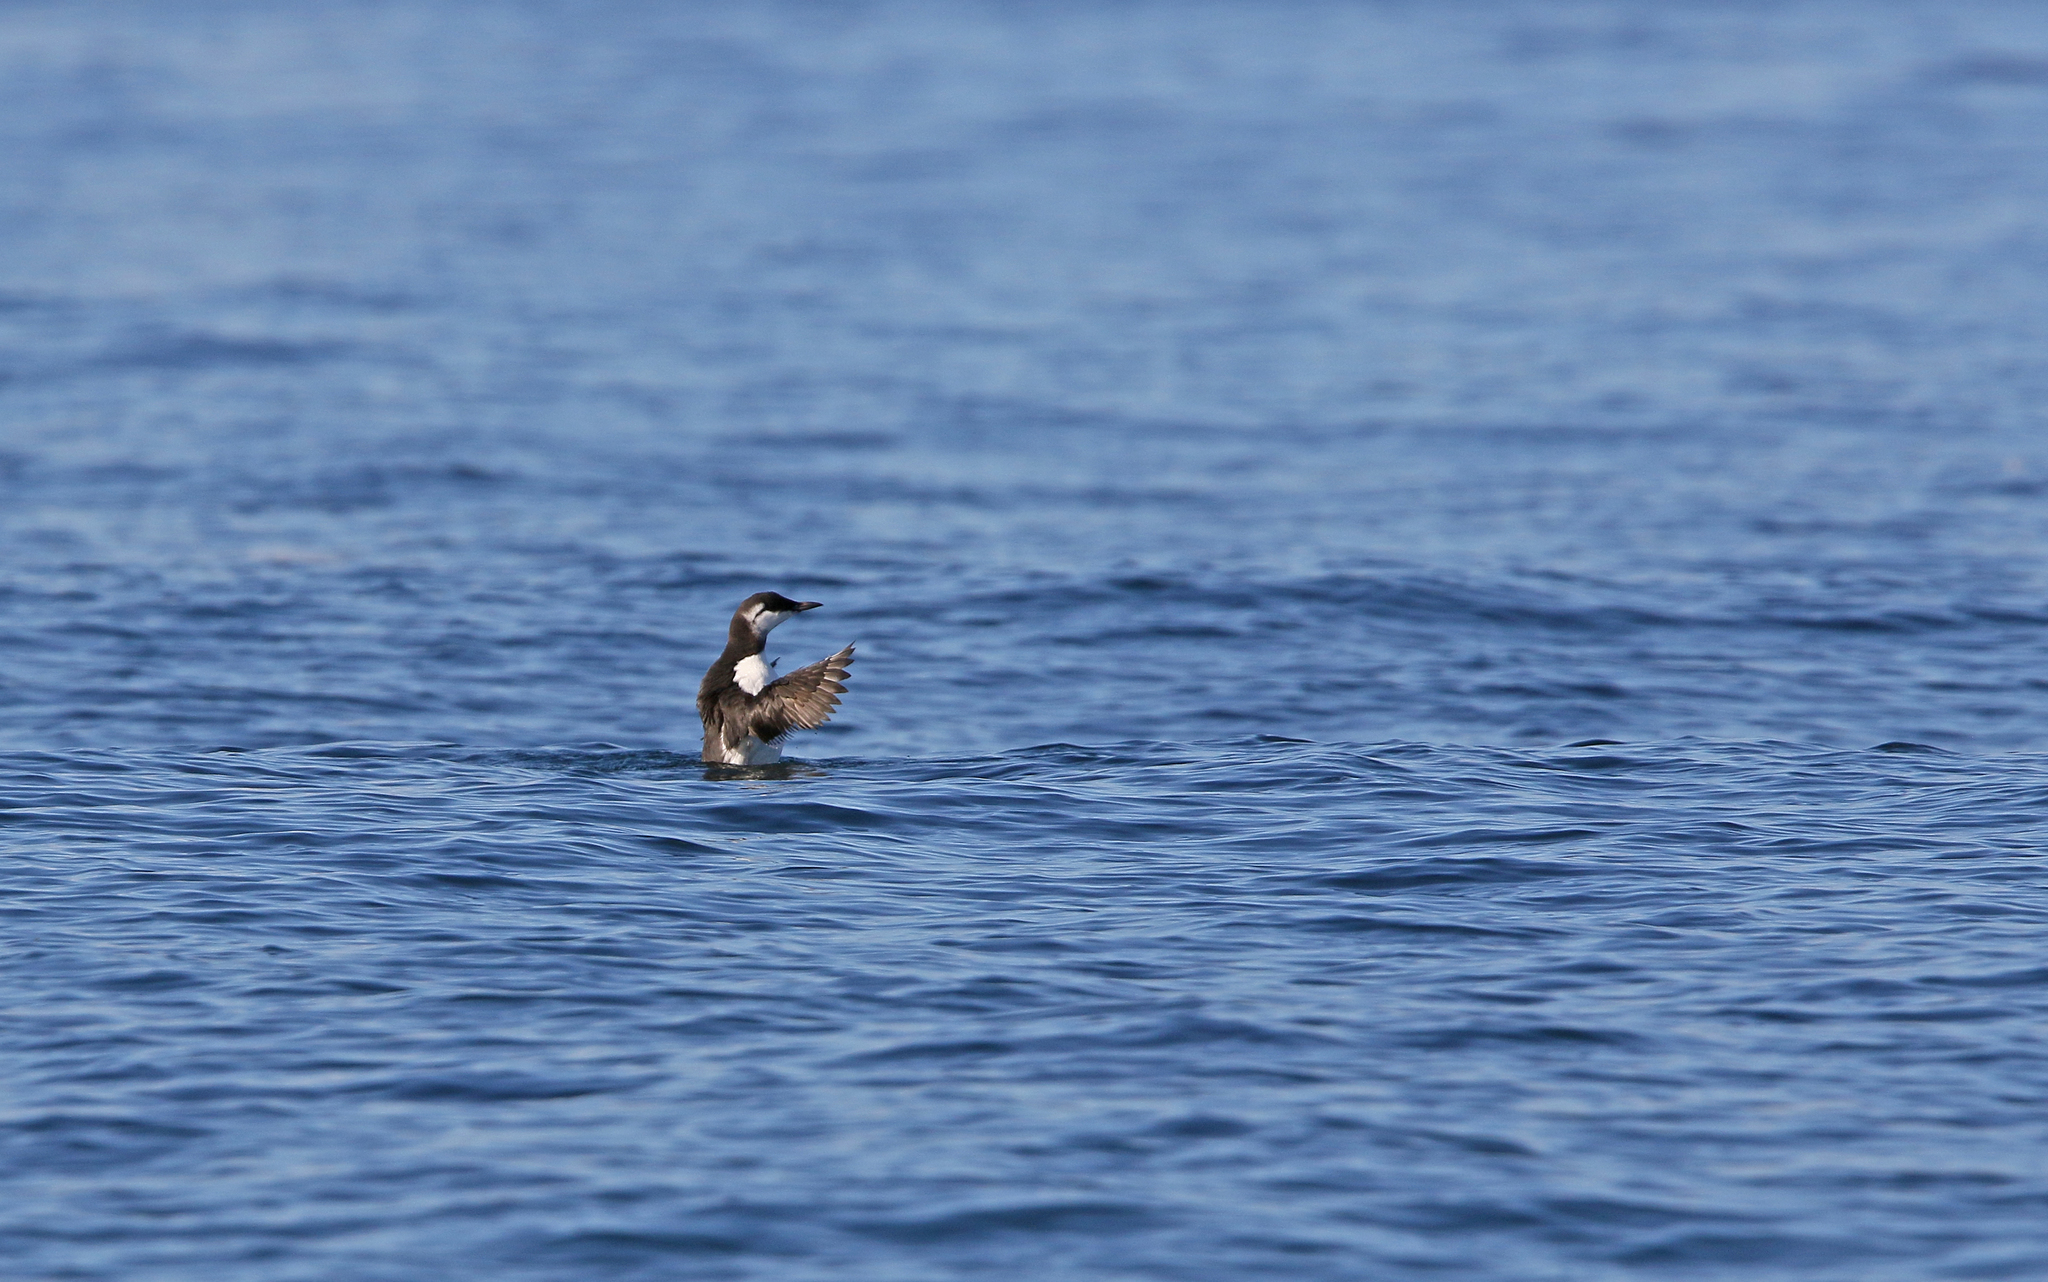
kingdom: Animalia
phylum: Chordata
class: Aves
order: Charadriiformes
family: Alcidae
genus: Uria
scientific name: Uria aalge
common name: Common murre
